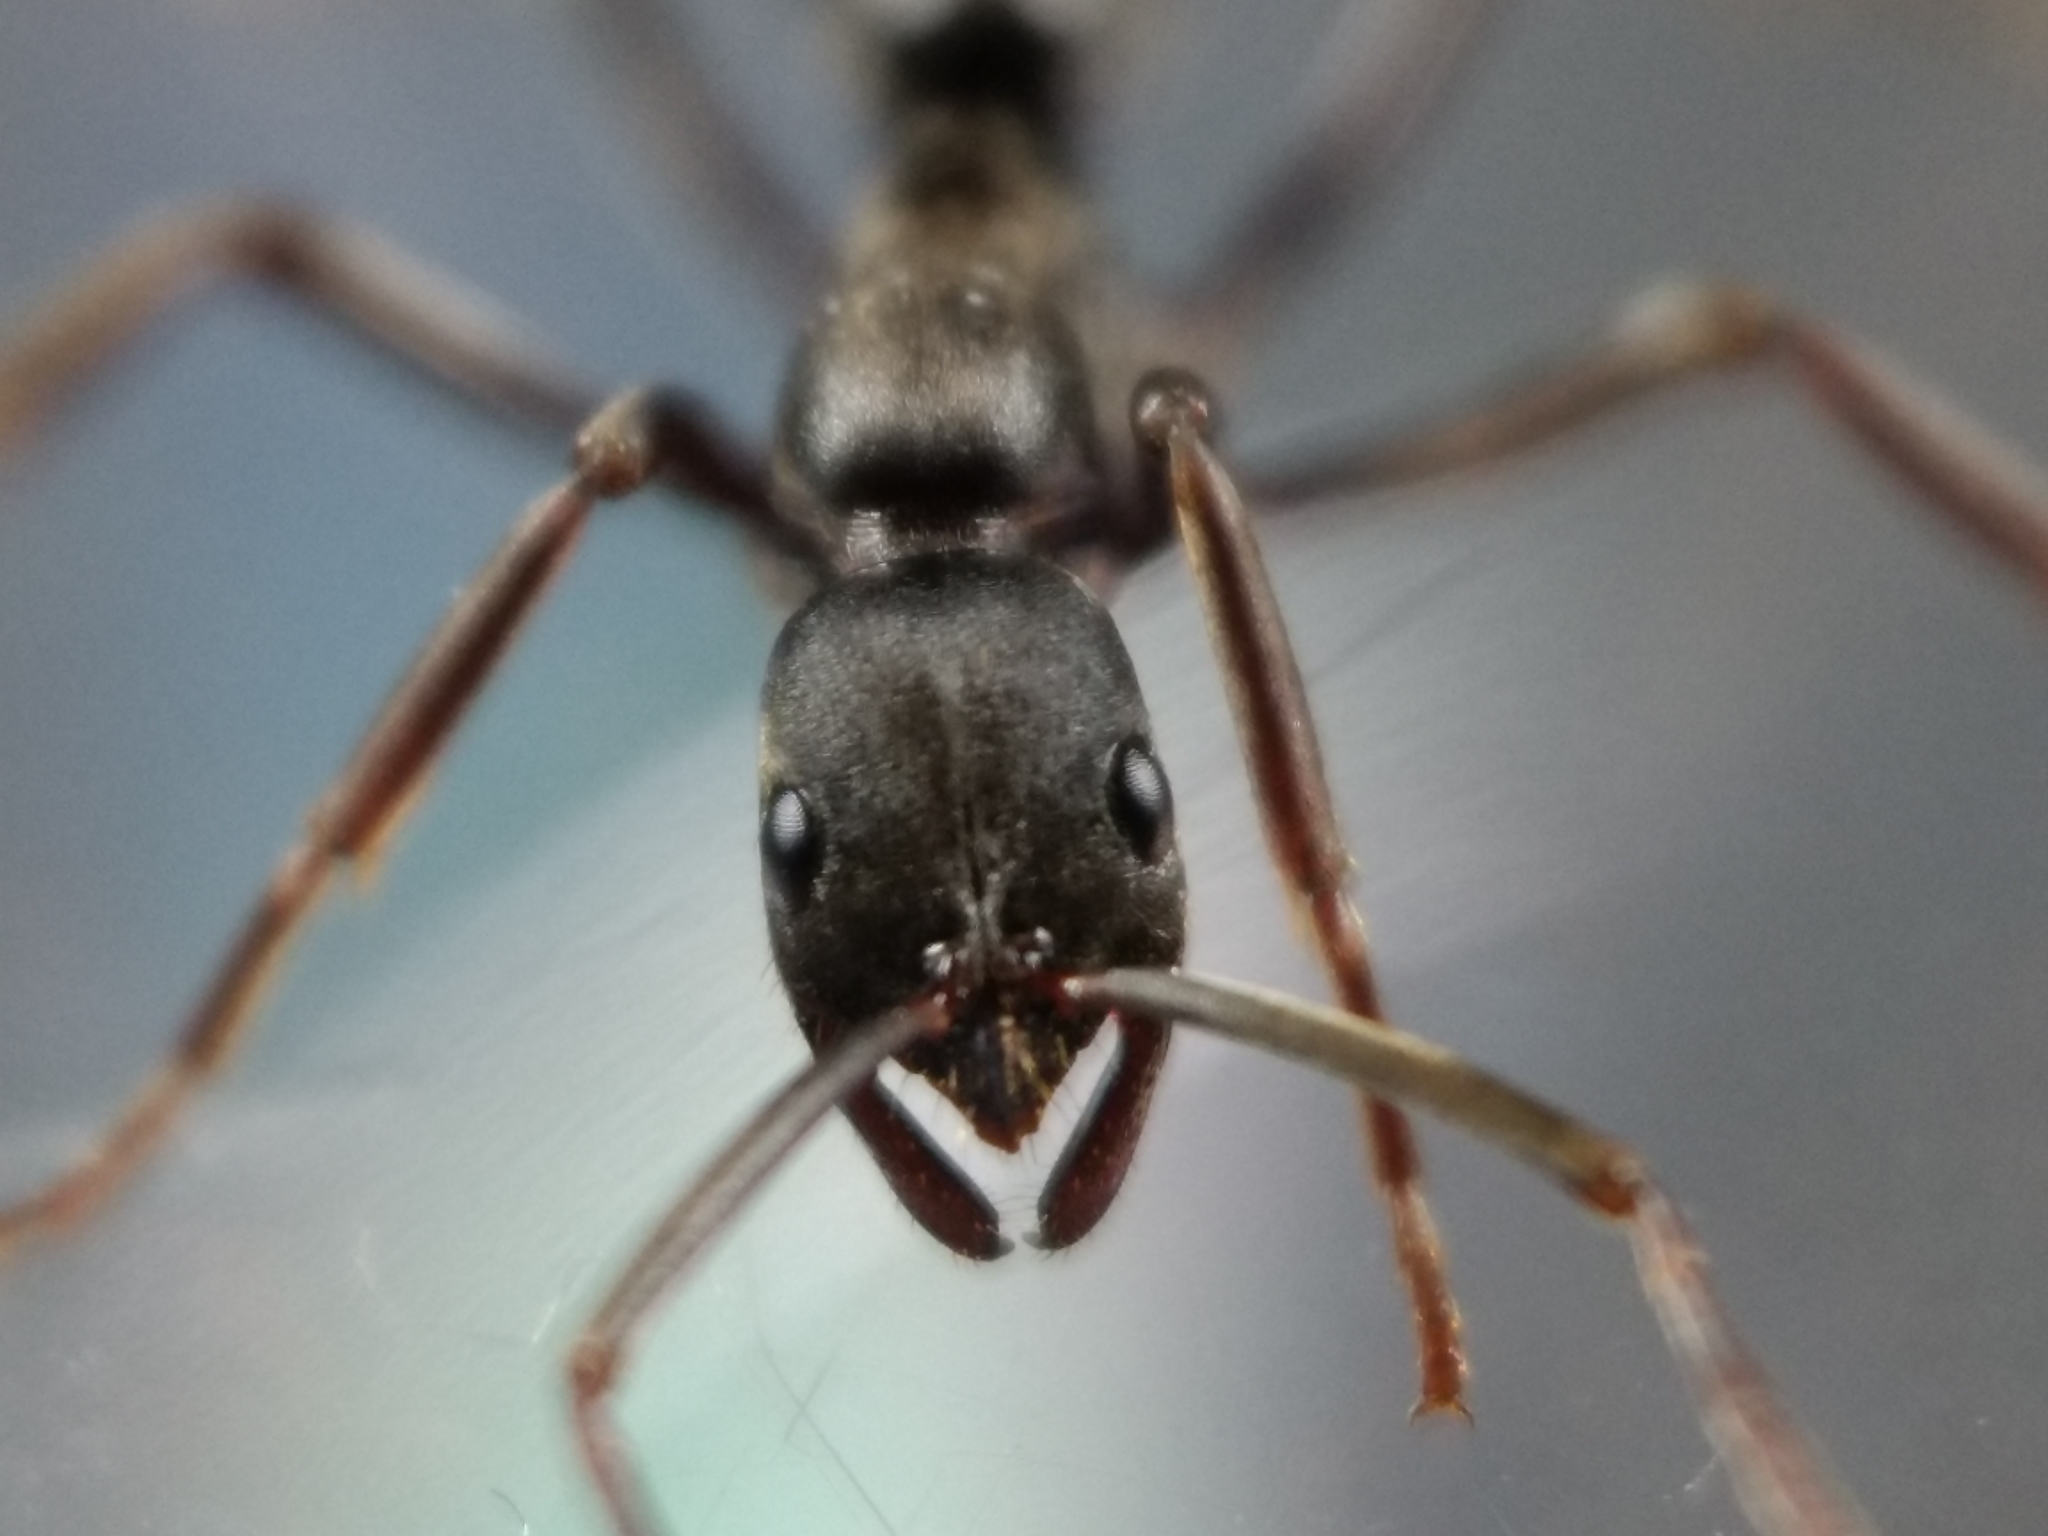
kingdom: Animalia
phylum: Arthropoda
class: Insecta
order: Hymenoptera
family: Formicidae
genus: Leptogenys
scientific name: Leptogenys excisa
